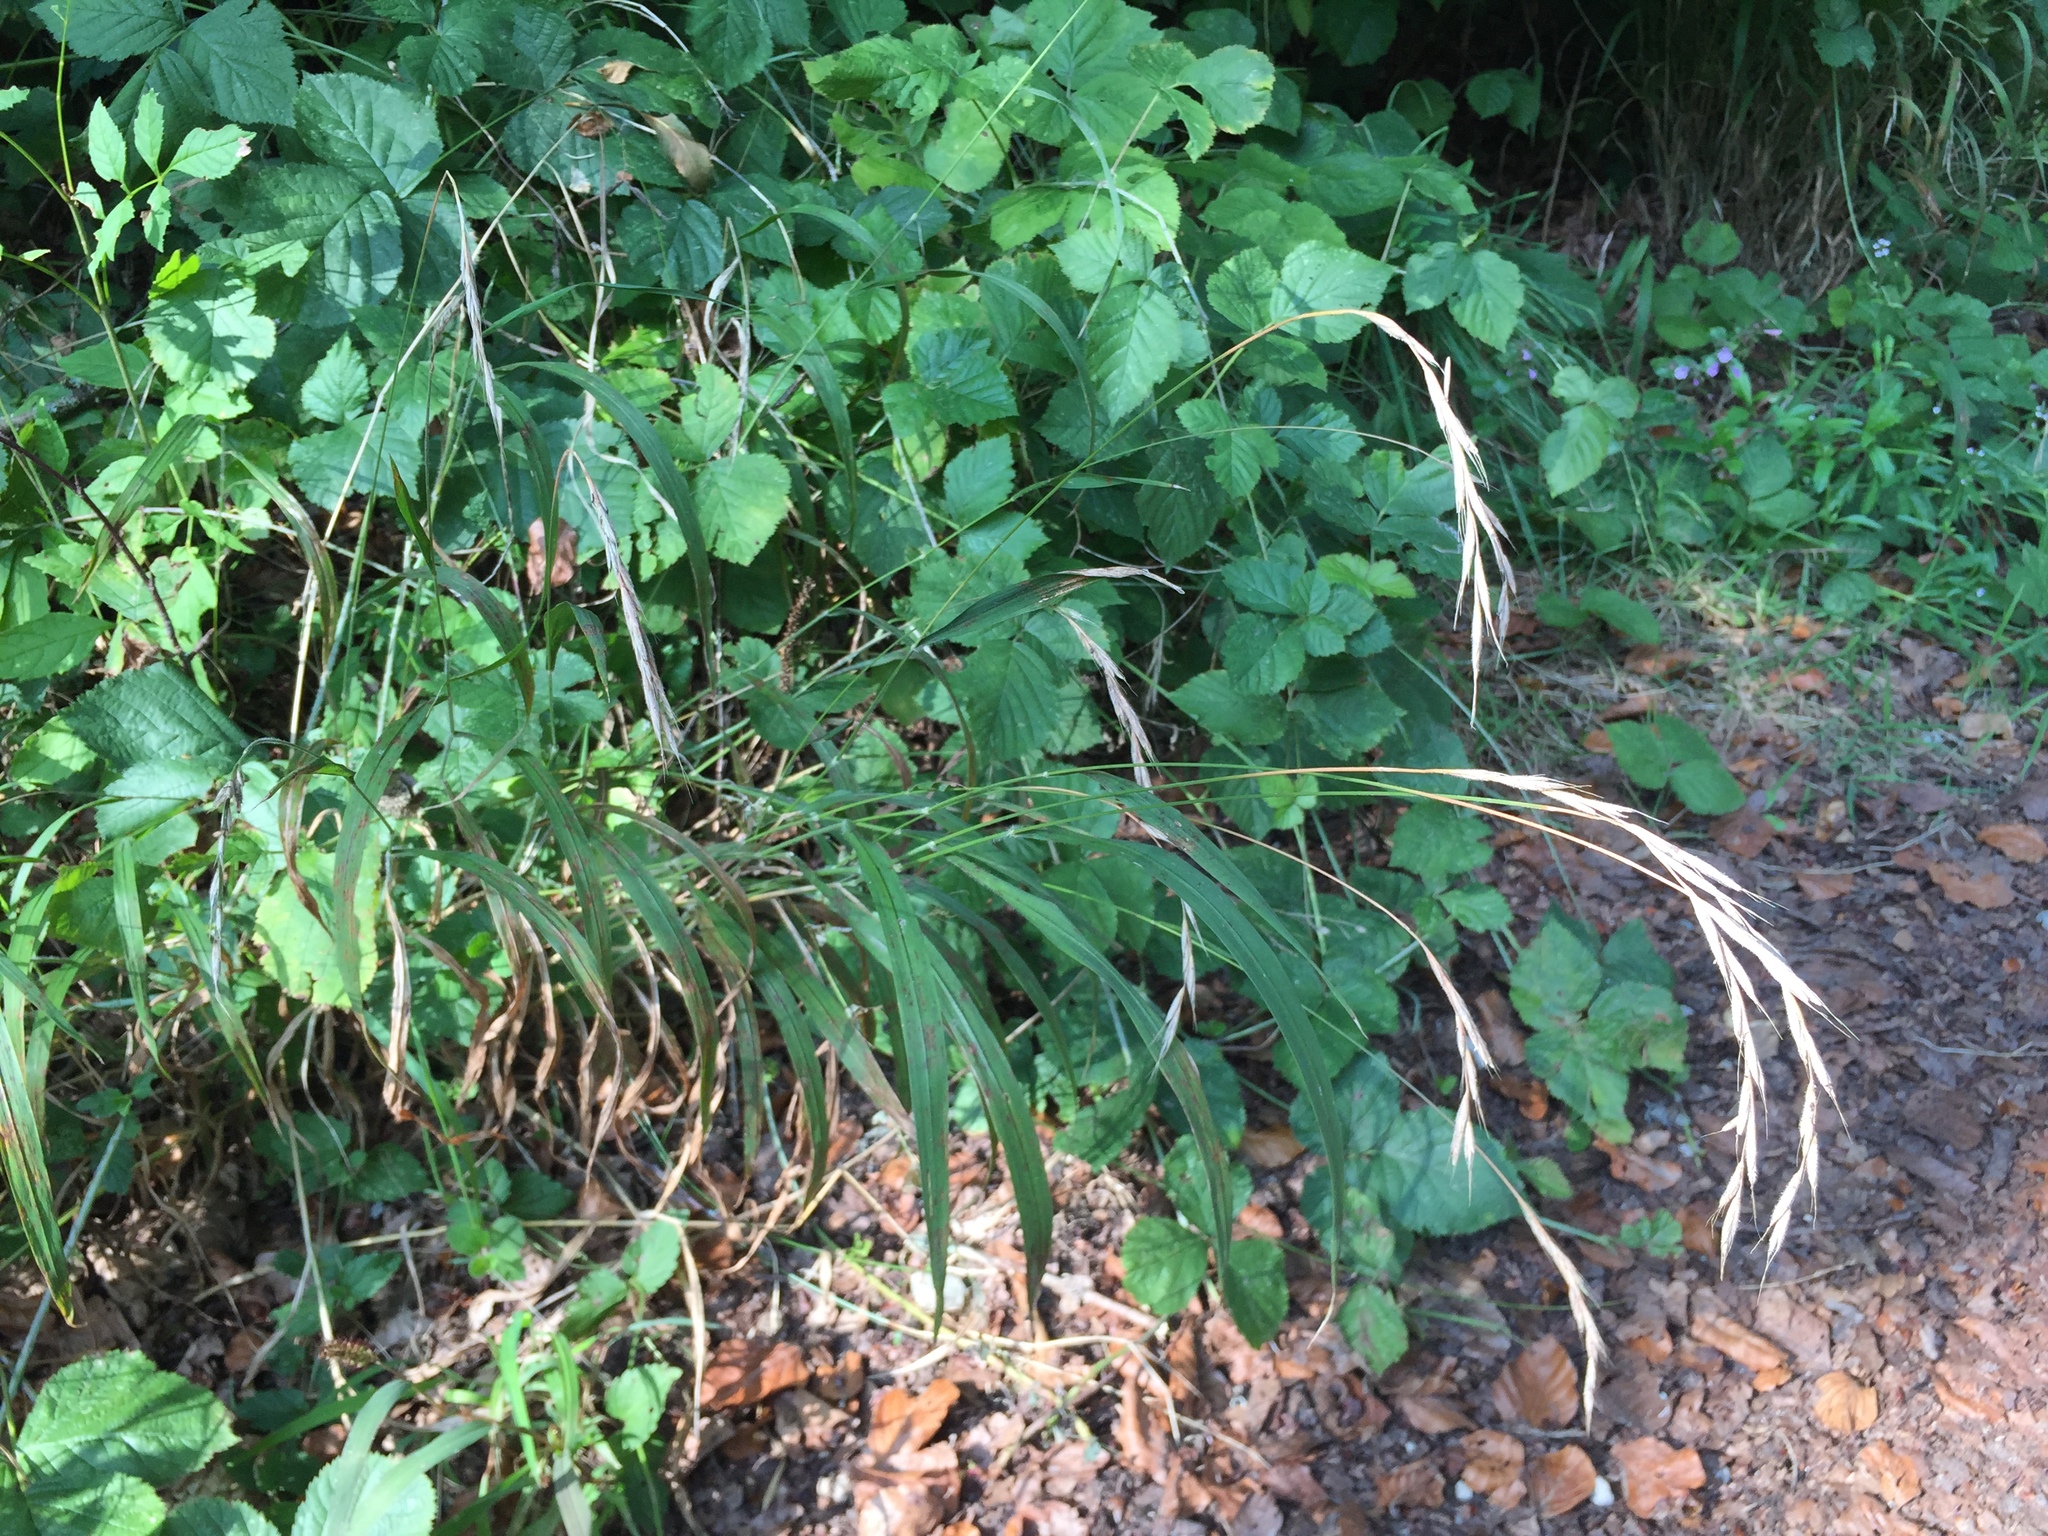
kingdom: Plantae
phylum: Tracheophyta
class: Liliopsida
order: Poales
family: Poaceae
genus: Brachypodium
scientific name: Brachypodium sylvaticum
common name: False-brome
